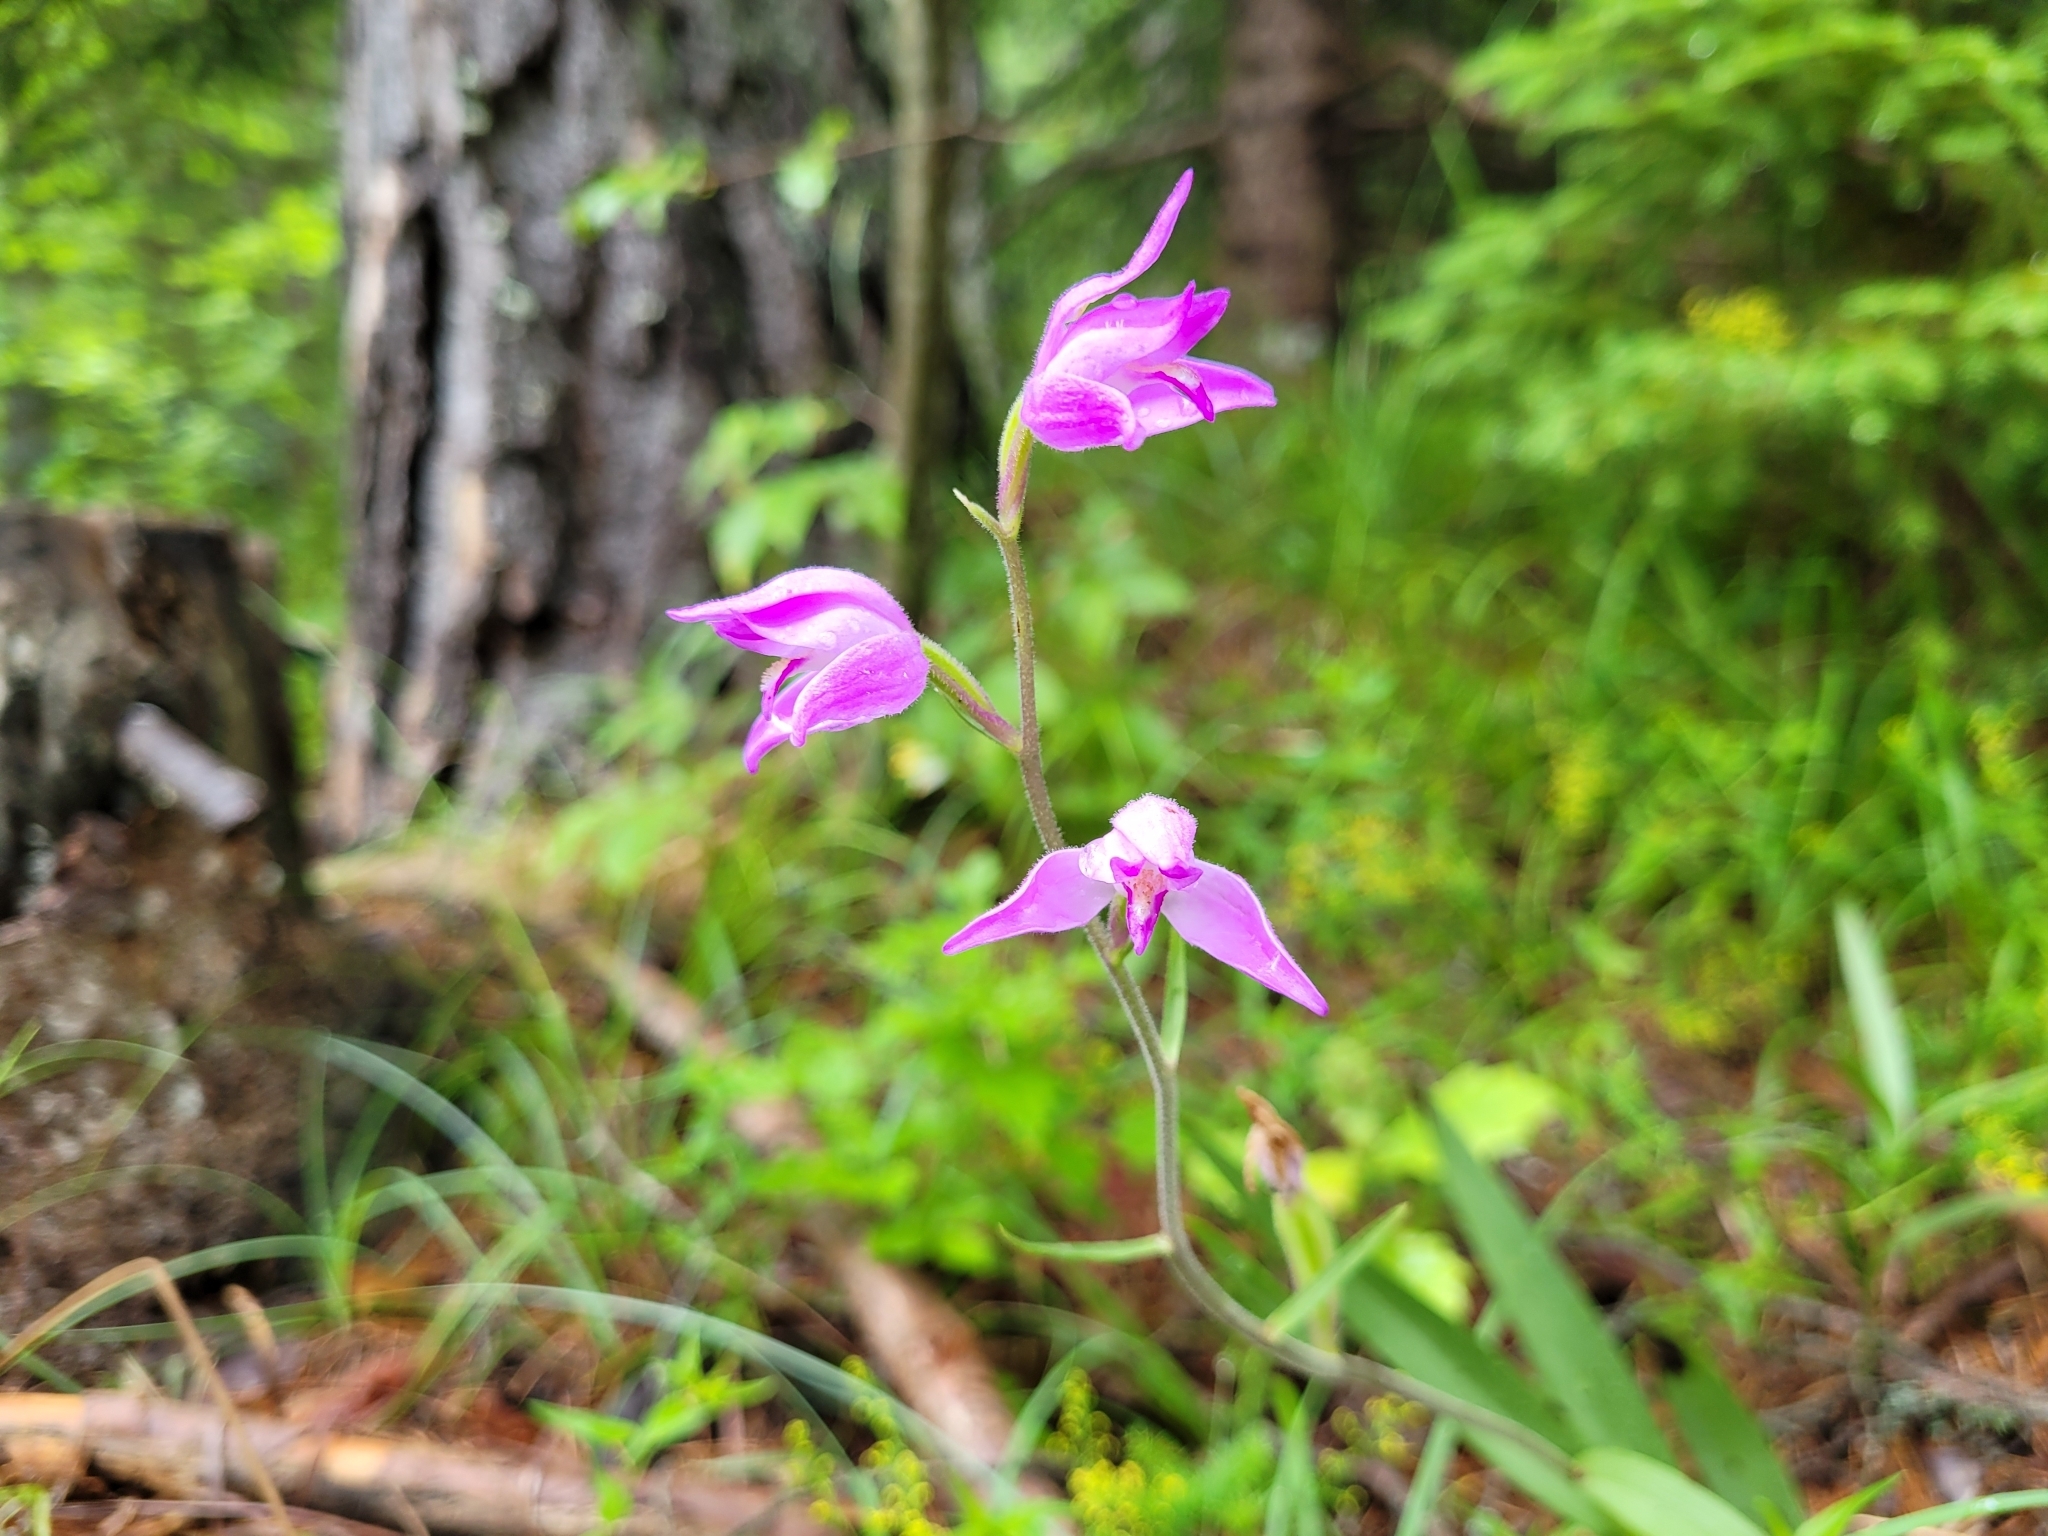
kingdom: Plantae
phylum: Tracheophyta
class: Liliopsida
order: Asparagales
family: Orchidaceae
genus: Cephalanthera
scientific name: Cephalanthera rubra
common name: Red helleborine
